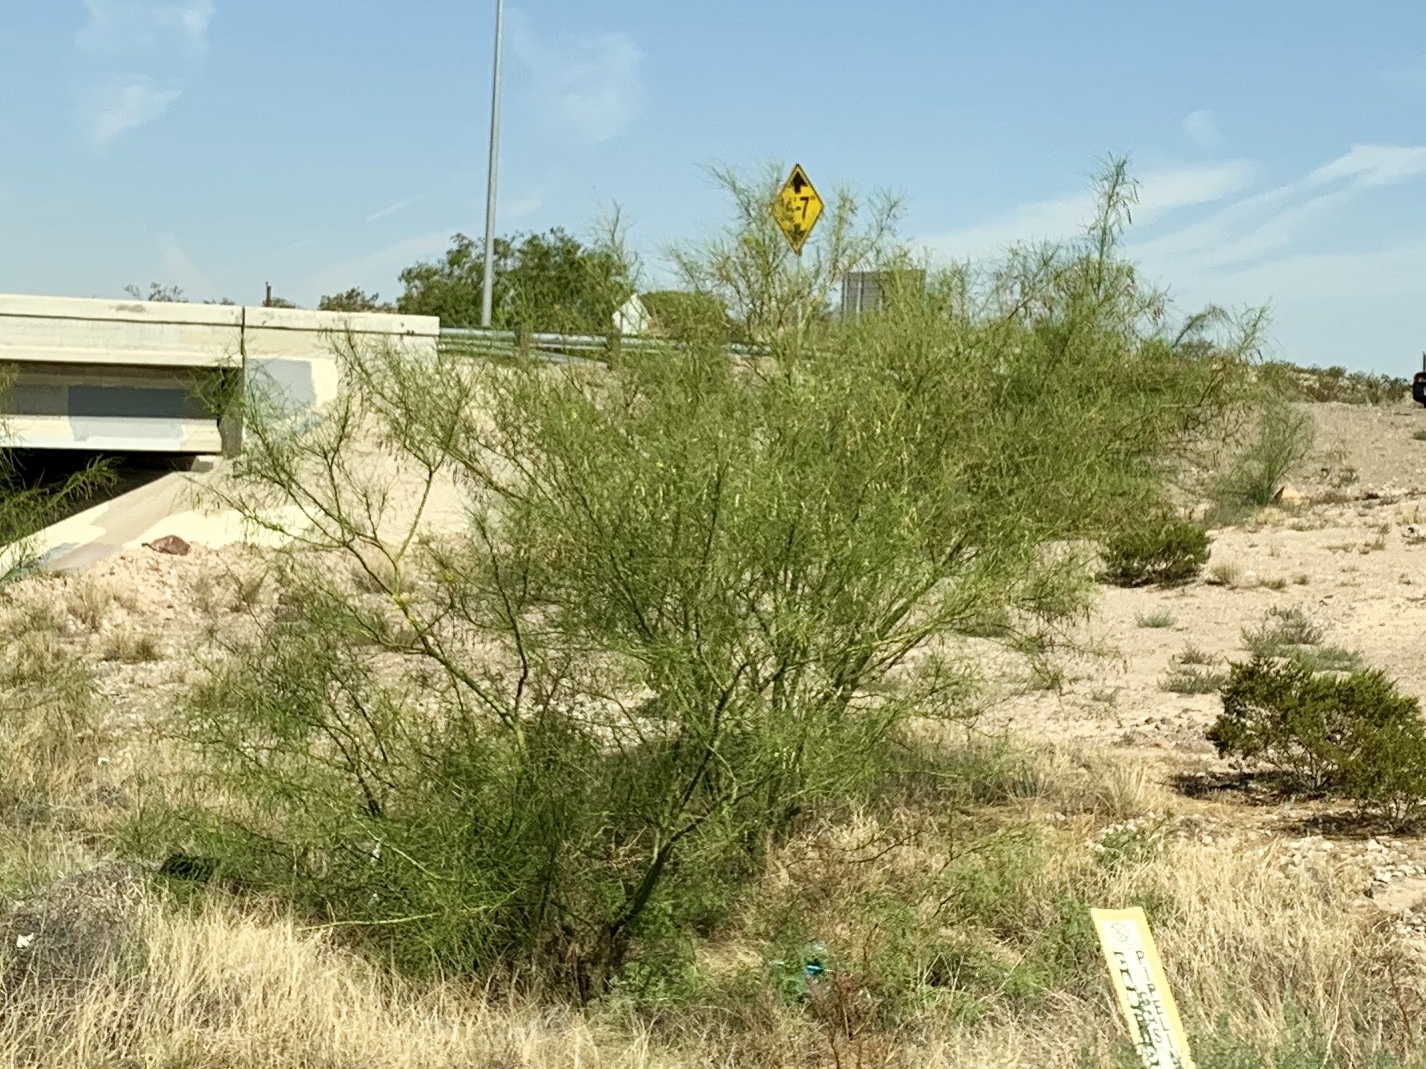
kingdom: Plantae
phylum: Tracheophyta
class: Magnoliopsida
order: Fabales
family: Fabaceae
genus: Parkinsonia
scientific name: Parkinsonia aculeata
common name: Jerusalem thorn
